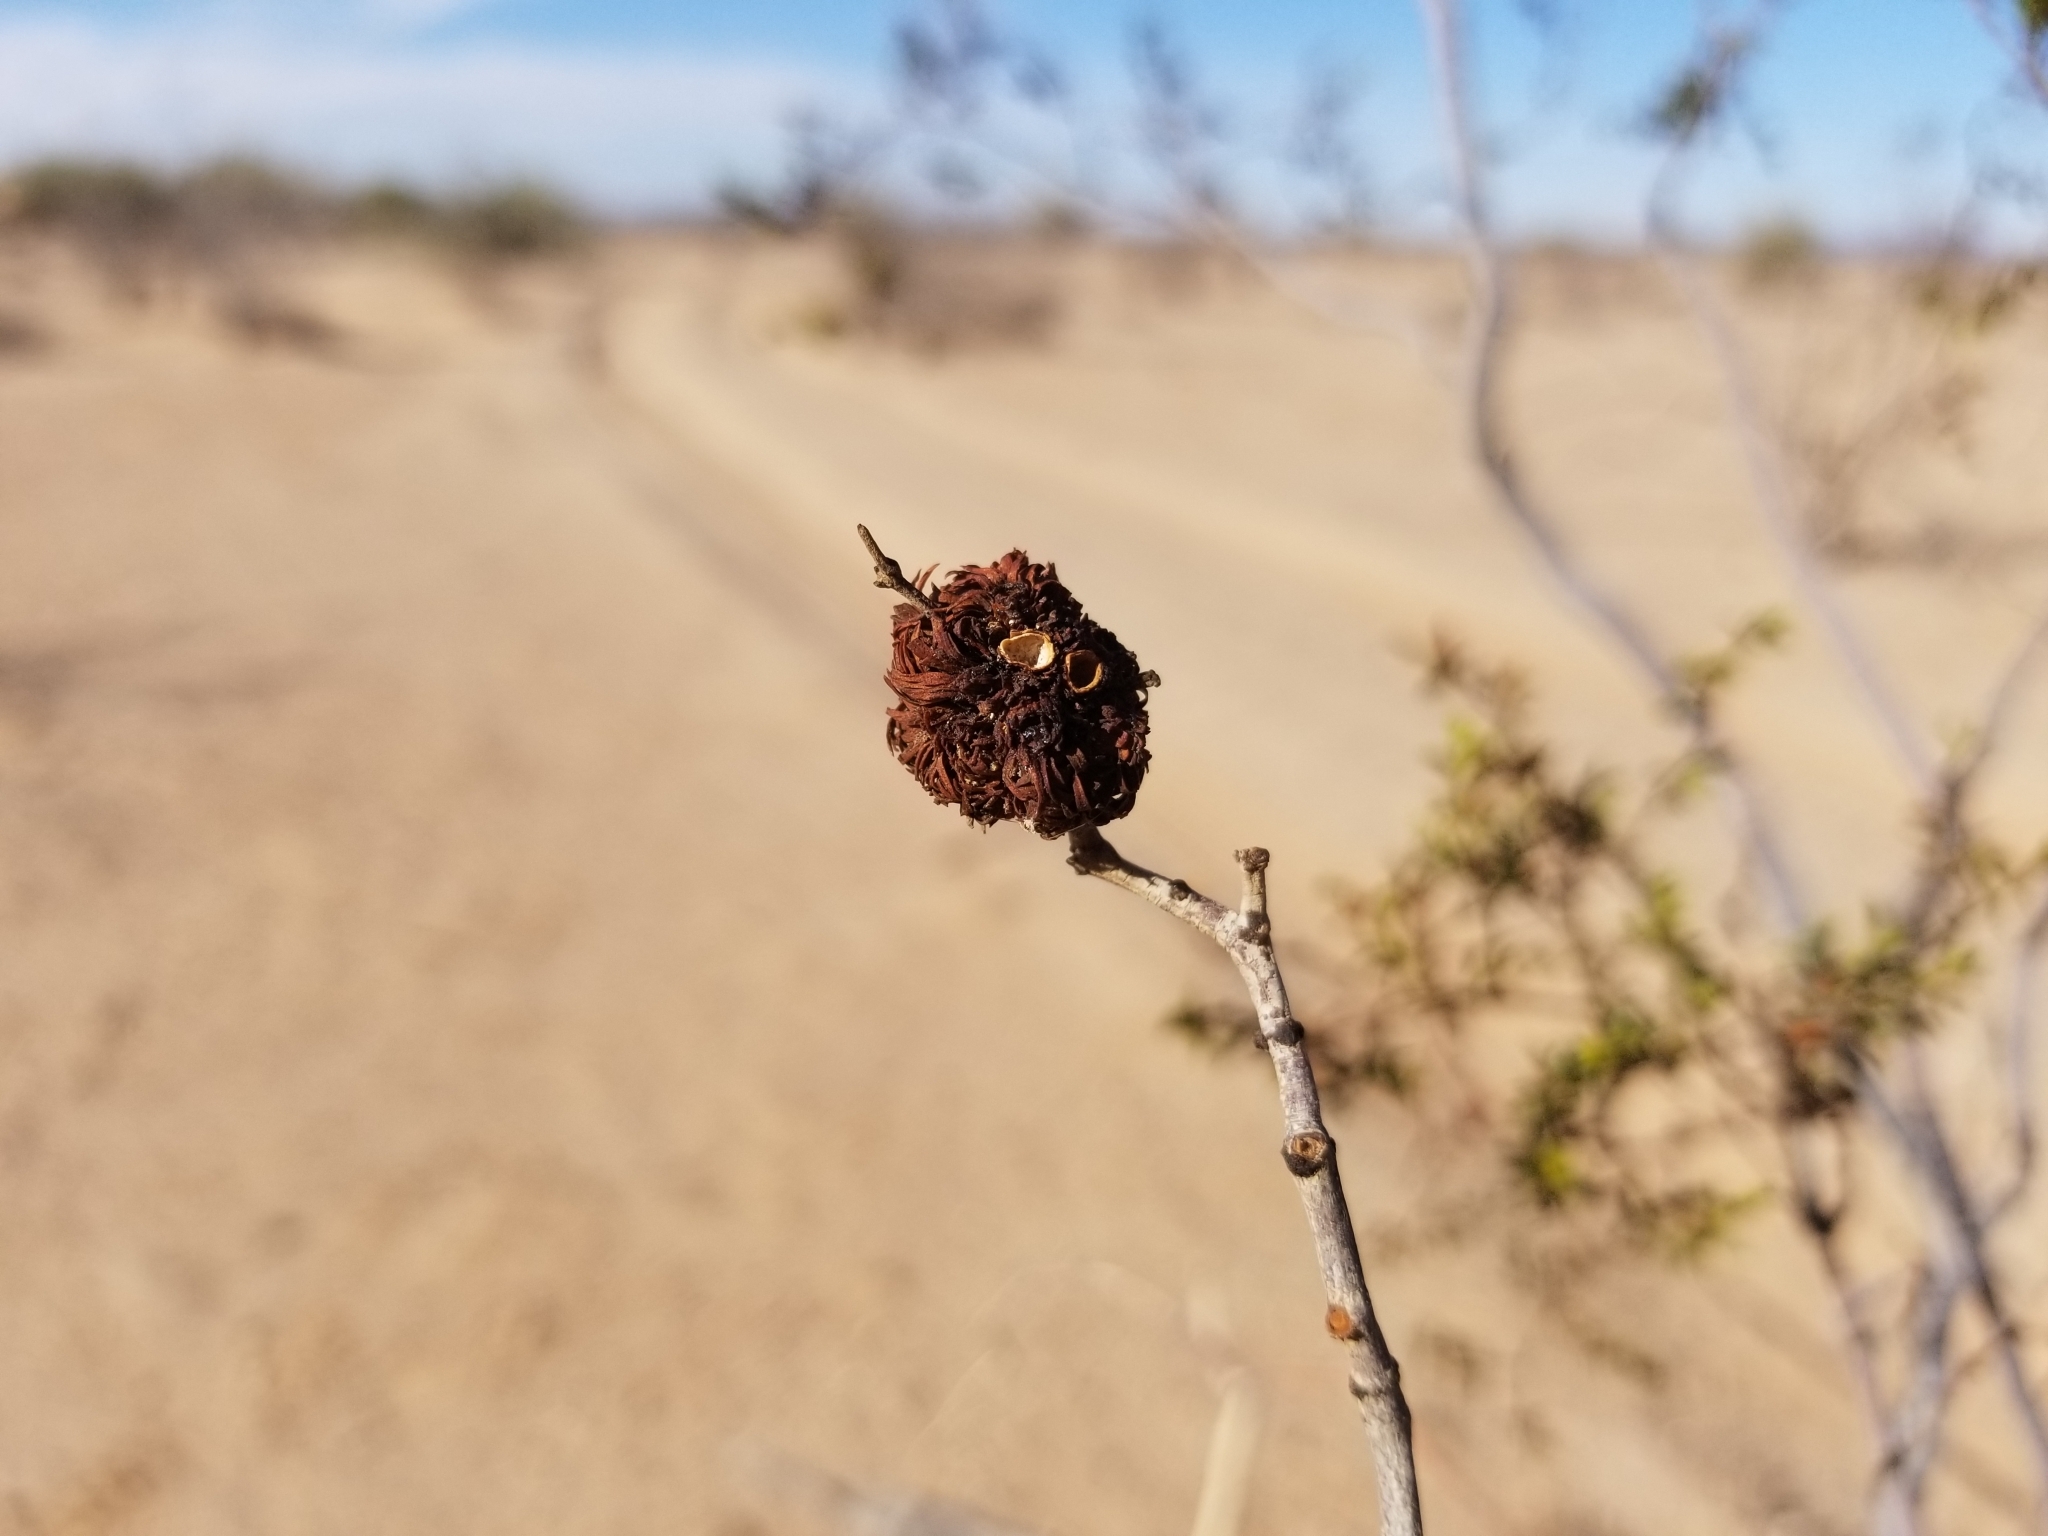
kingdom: Animalia
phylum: Arthropoda
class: Insecta
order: Diptera
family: Cecidomyiidae
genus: Asphondylia
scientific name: Asphondylia auripila
